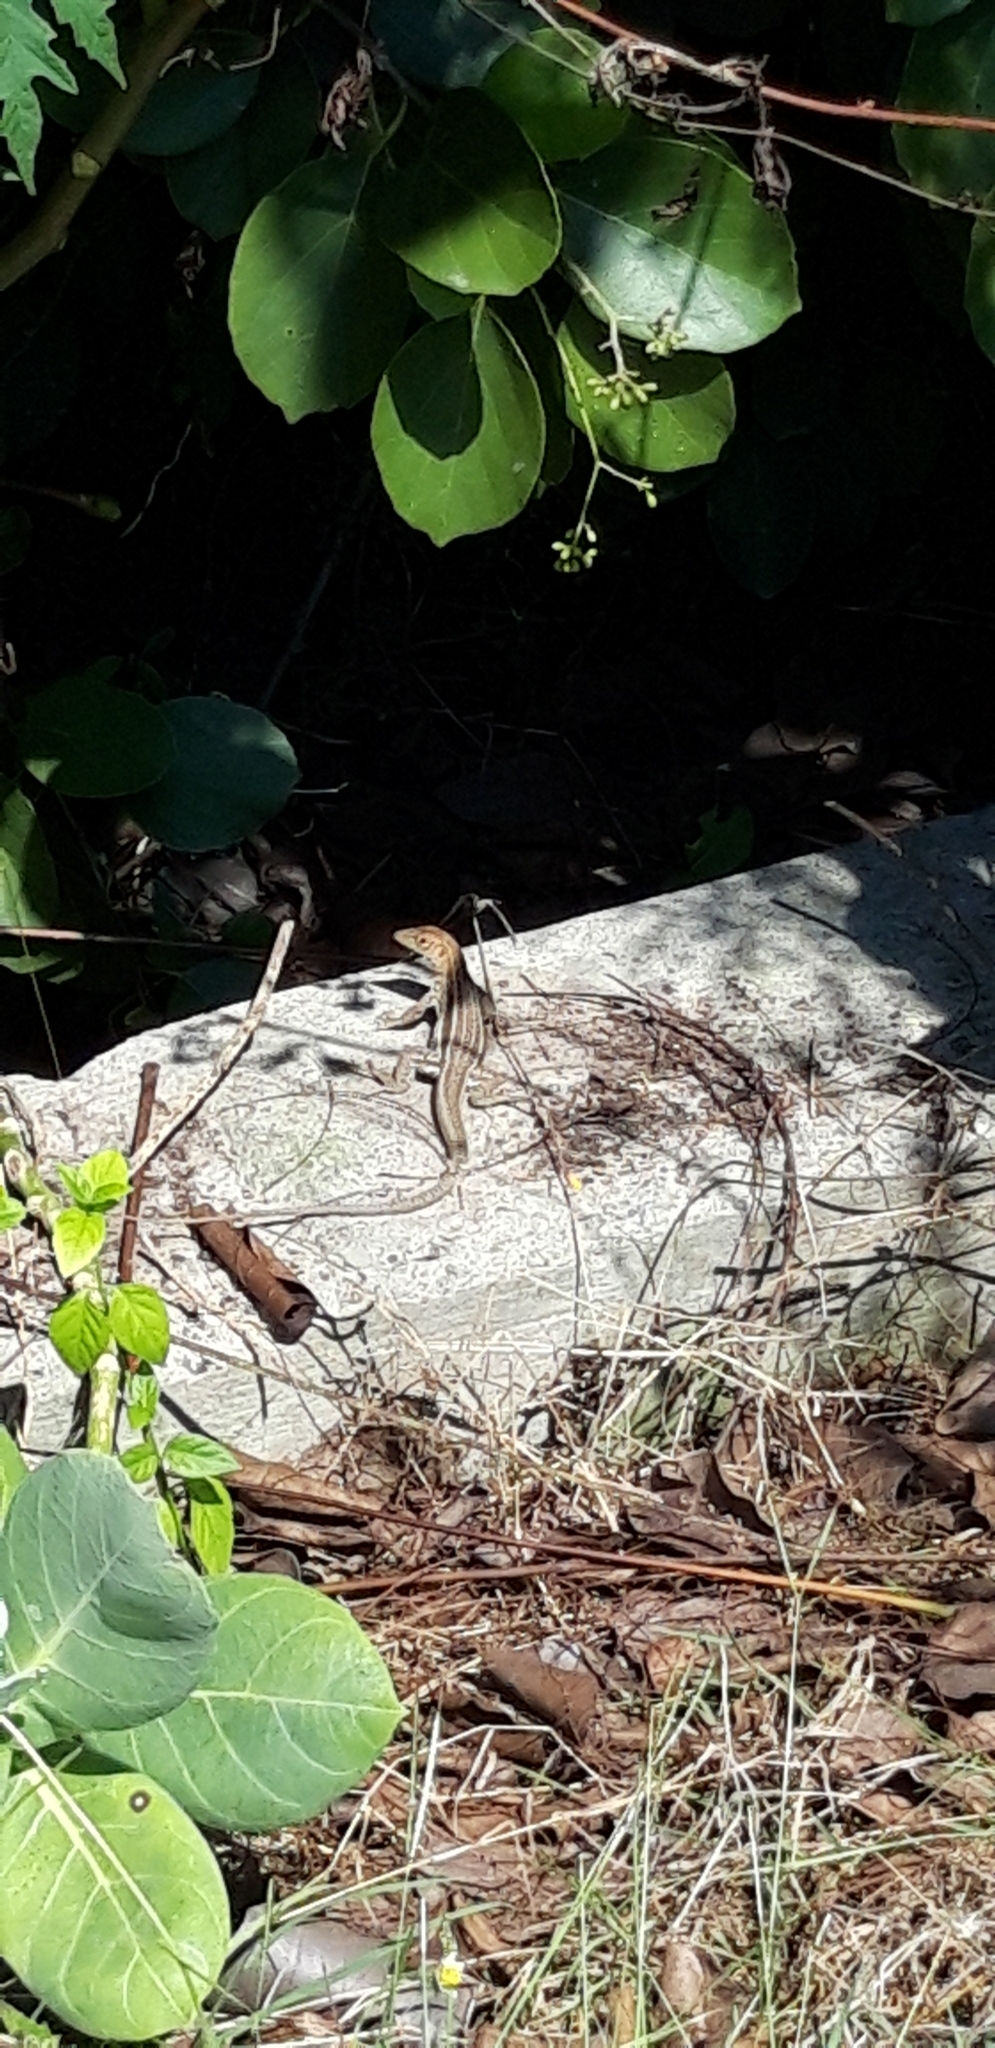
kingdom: Animalia
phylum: Chordata
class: Squamata
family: Teiidae
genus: Pholidoscelis
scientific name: Pholidoscelis plei
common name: Anguilla bank ameiva
